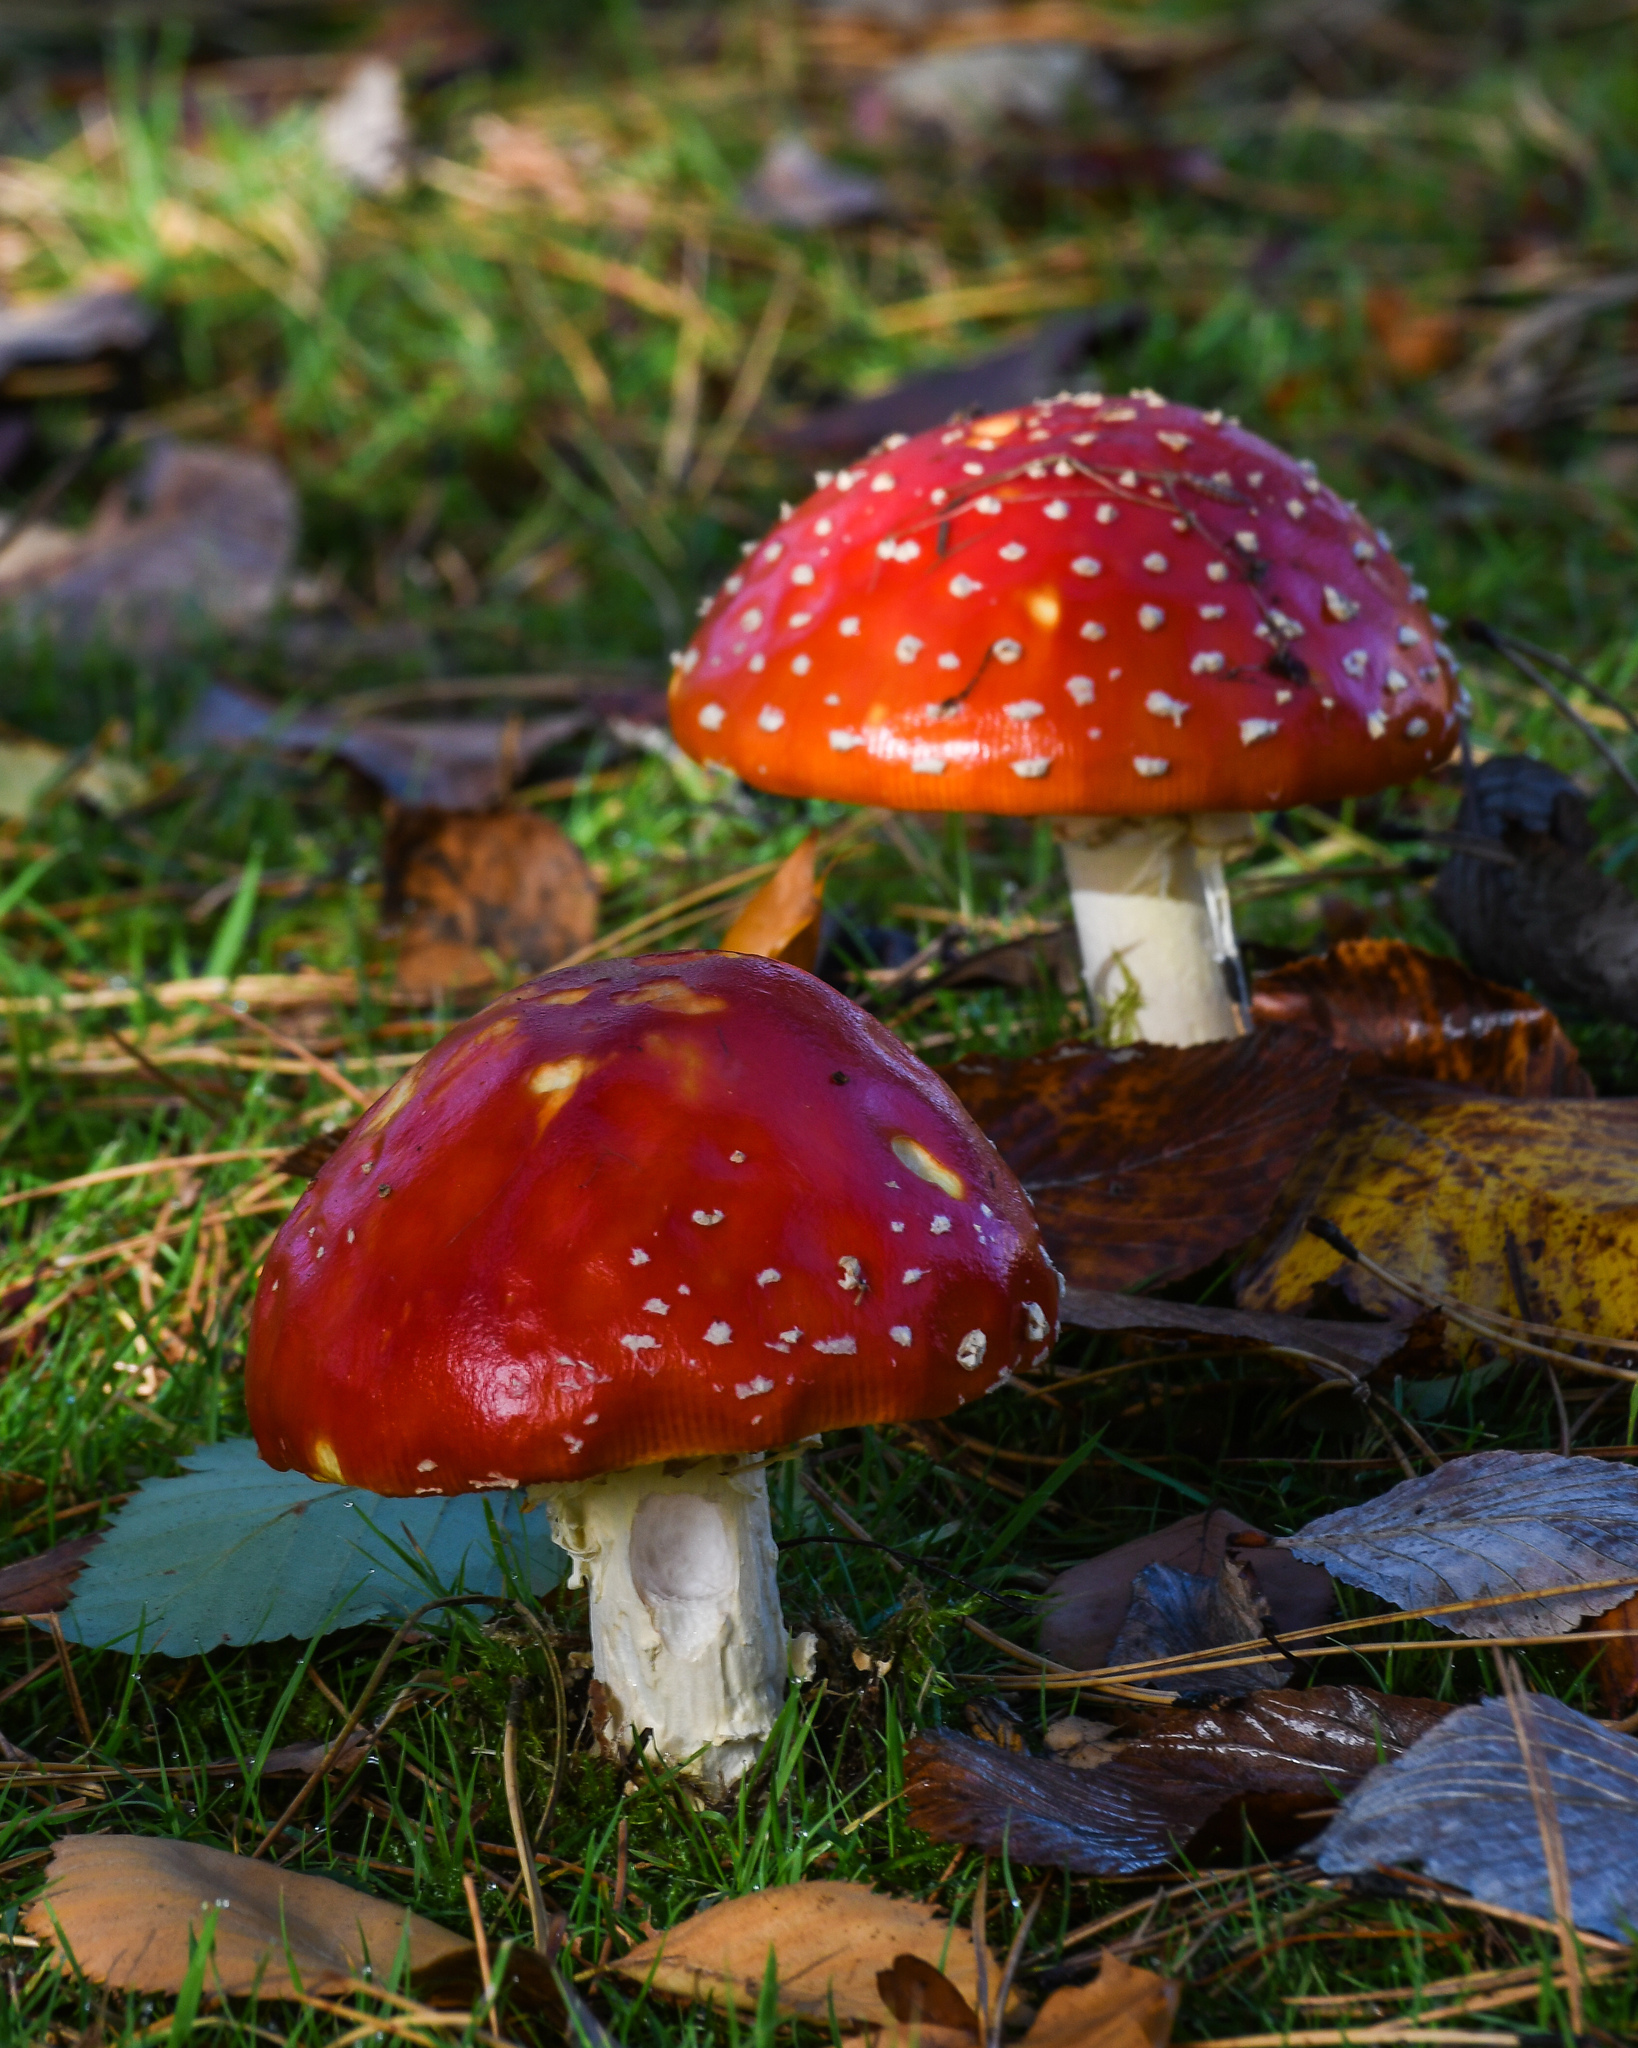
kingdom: Fungi
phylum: Basidiomycota
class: Agaricomycetes
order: Agaricales
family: Amanitaceae
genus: Amanita
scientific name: Amanita muscaria
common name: Fly agaric
